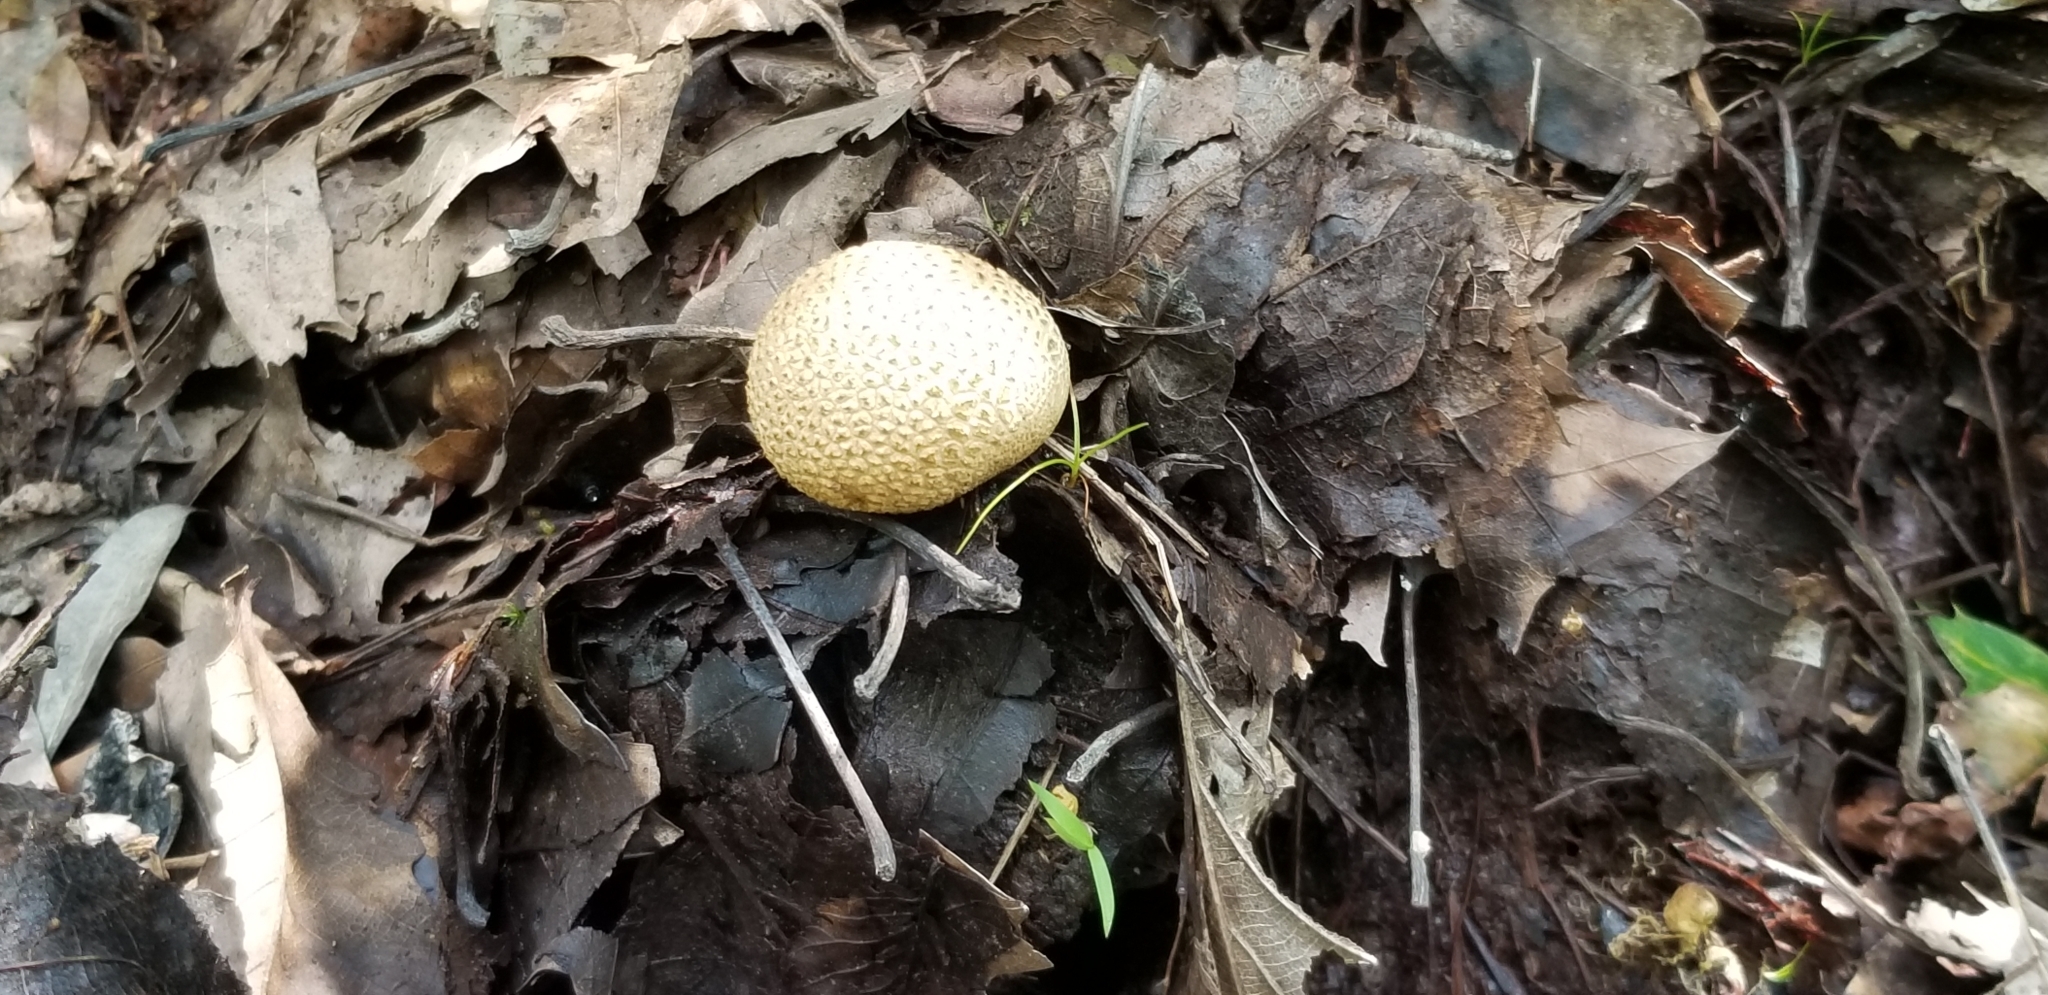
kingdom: Fungi
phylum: Basidiomycota
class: Agaricomycetes
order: Boletales
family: Sclerodermataceae
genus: Scleroderma
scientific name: Scleroderma citrinum
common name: Common earthball
